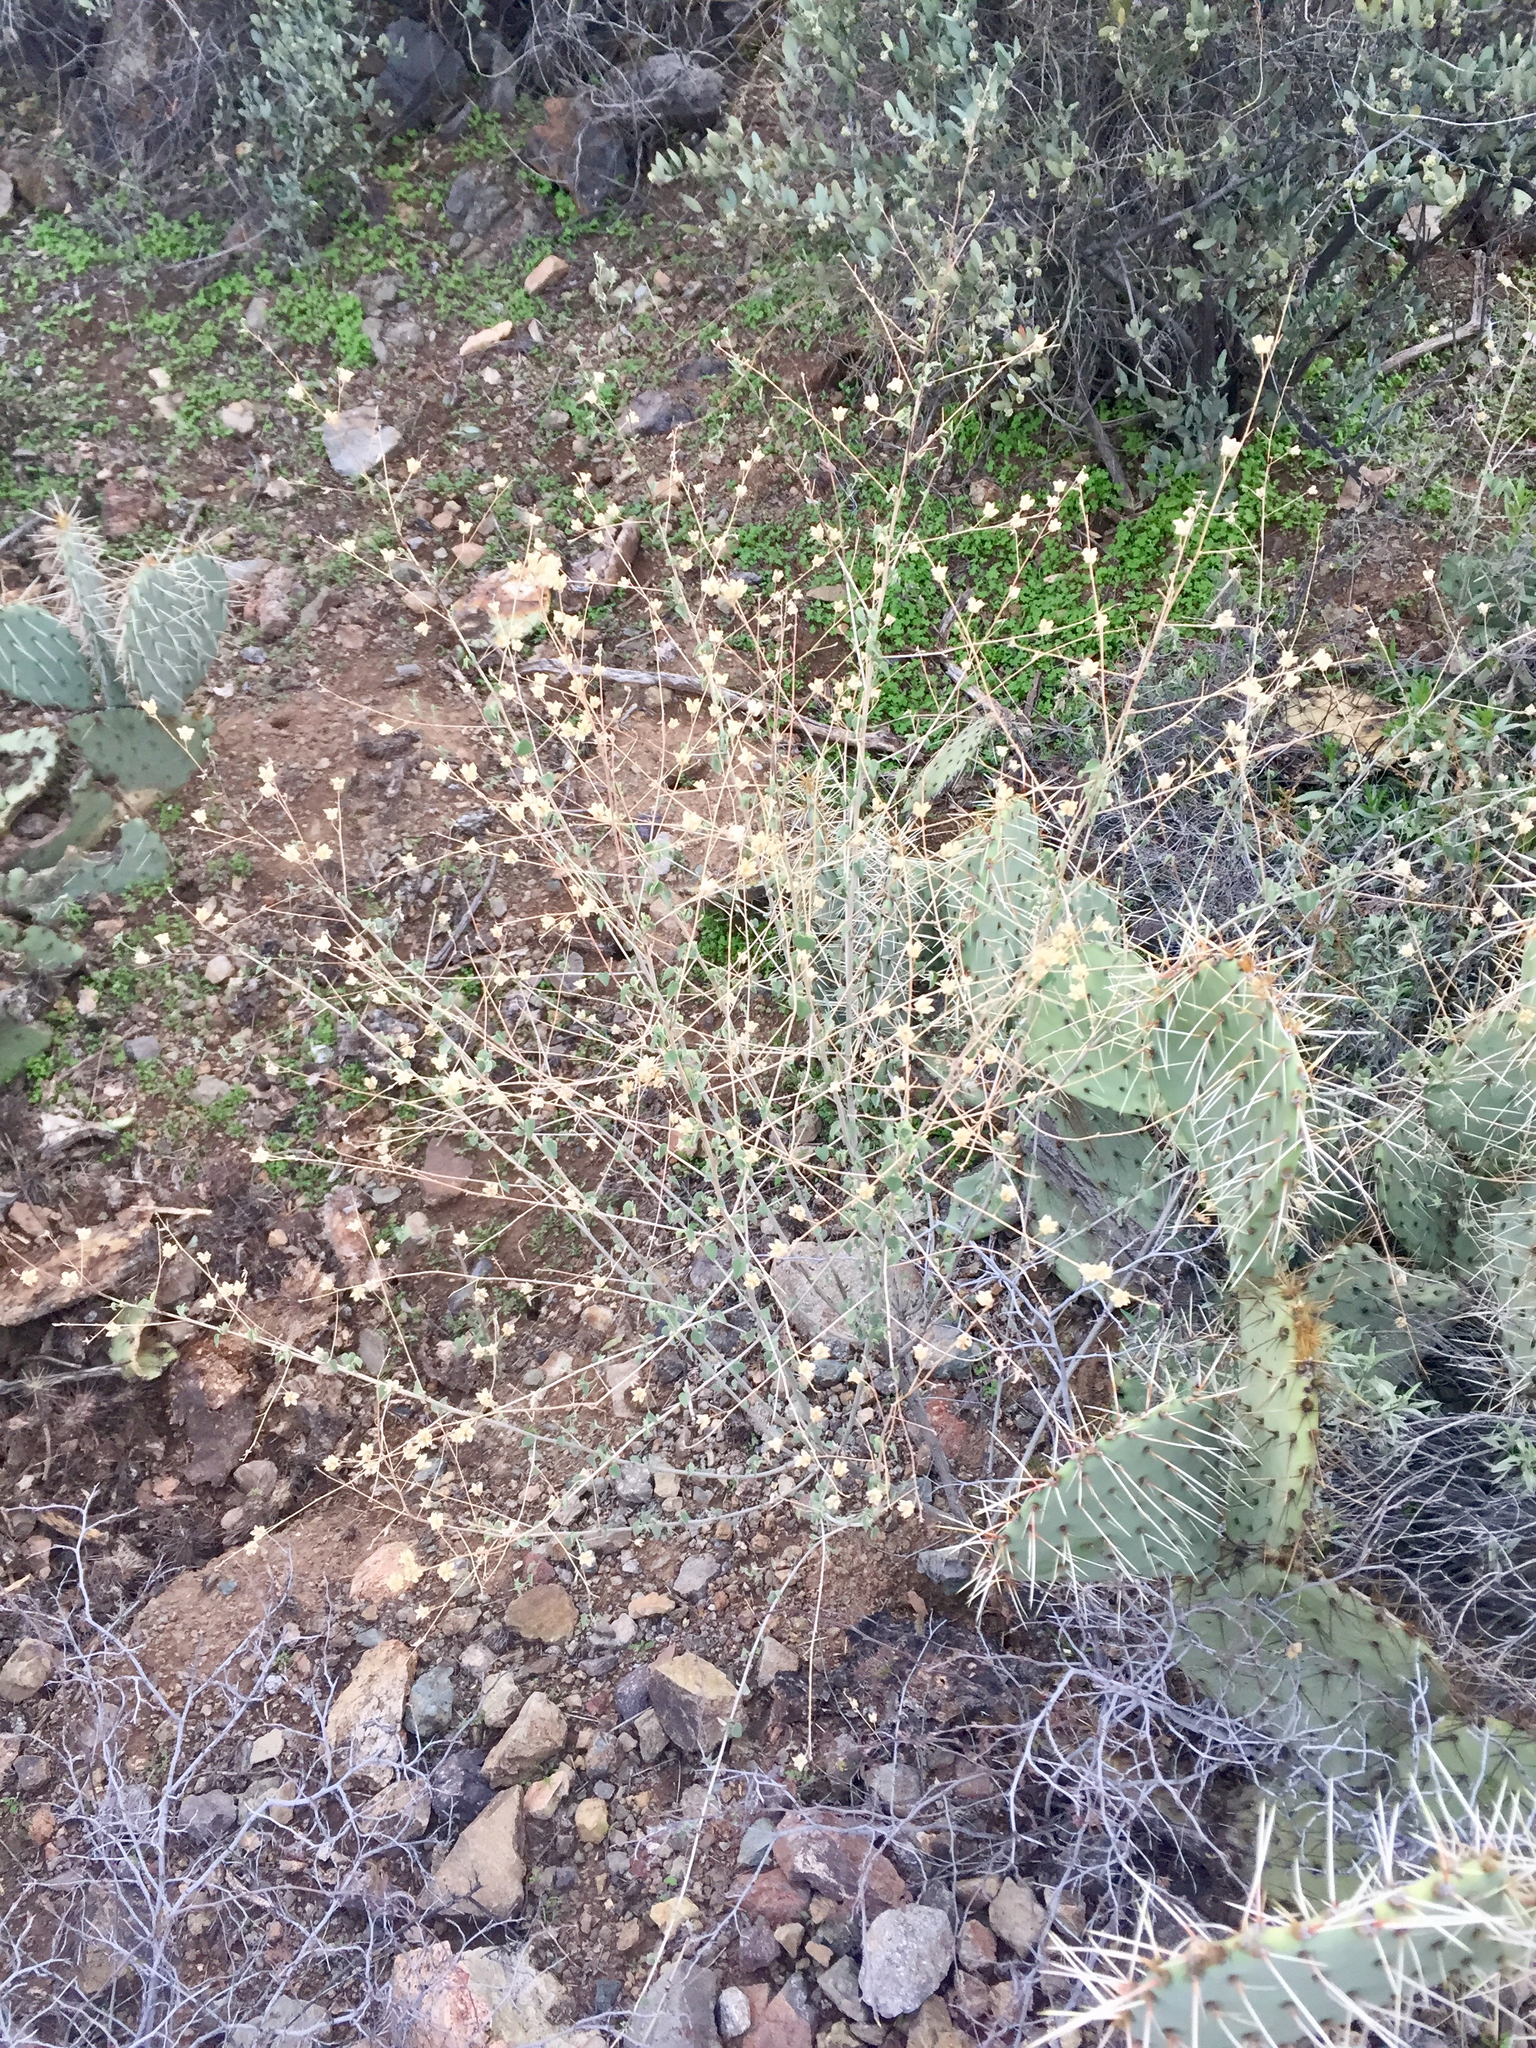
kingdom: Plantae
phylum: Tracheophyta
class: Magnoliopsida
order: Malvales
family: Malvaceae
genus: Abutilon
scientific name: Abutilon incanum
